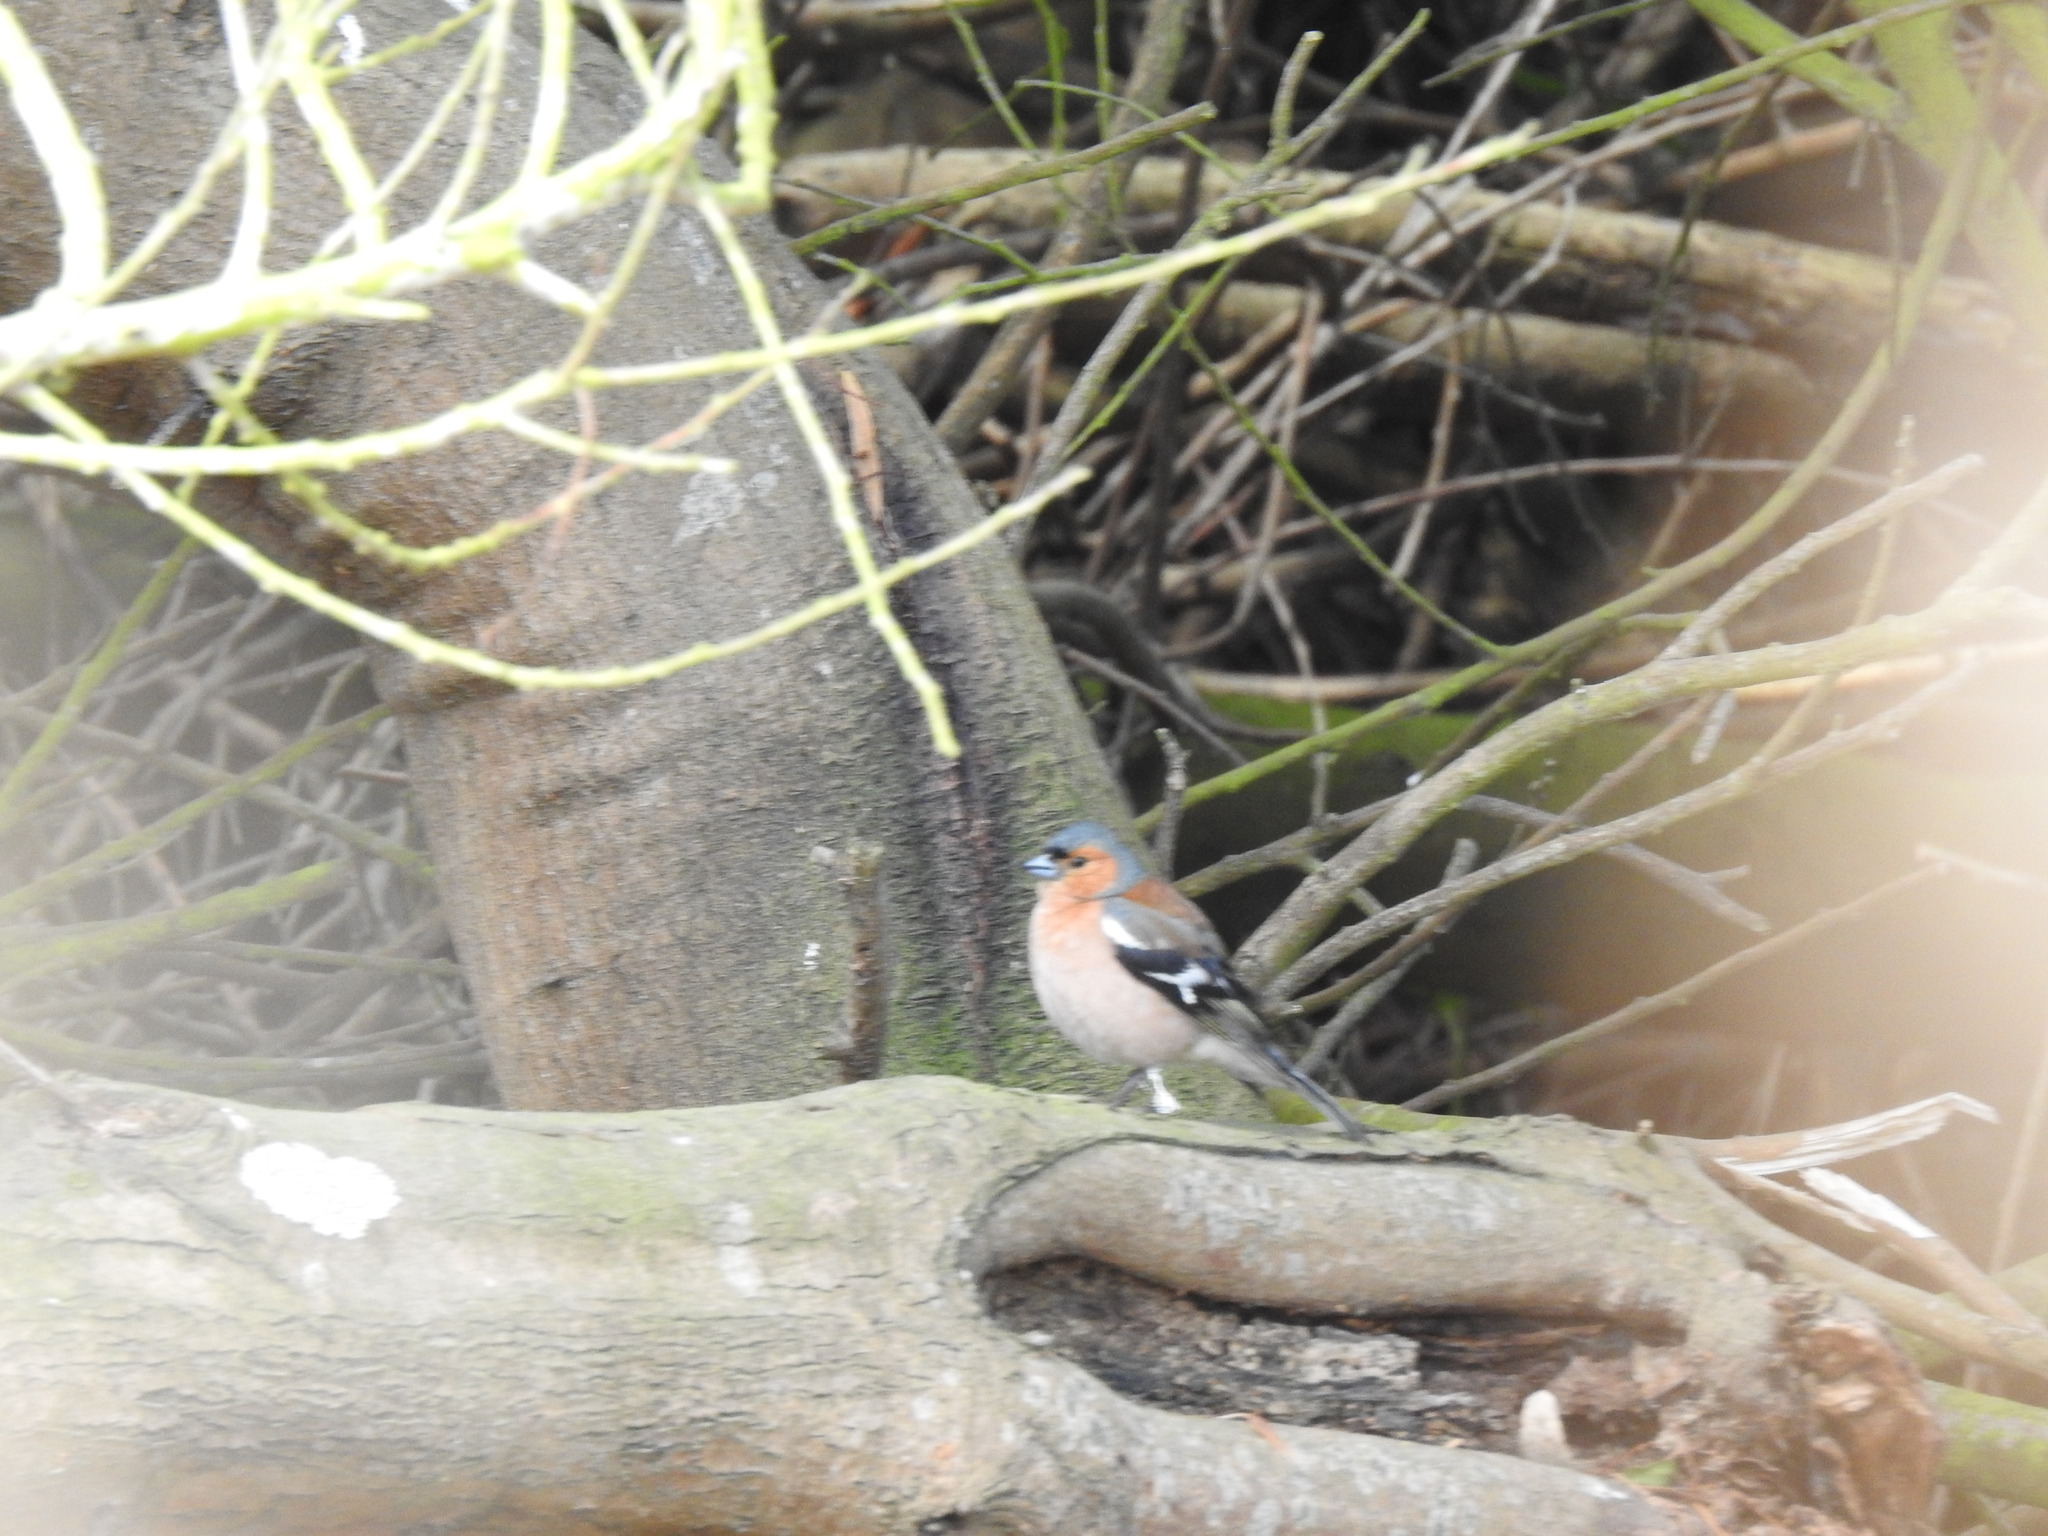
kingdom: Animalia
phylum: Chordata
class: Aves
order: Passeriformes
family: Fringillidae
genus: Fringilla
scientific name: Fringilla coelebs
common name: Common chaffinch
